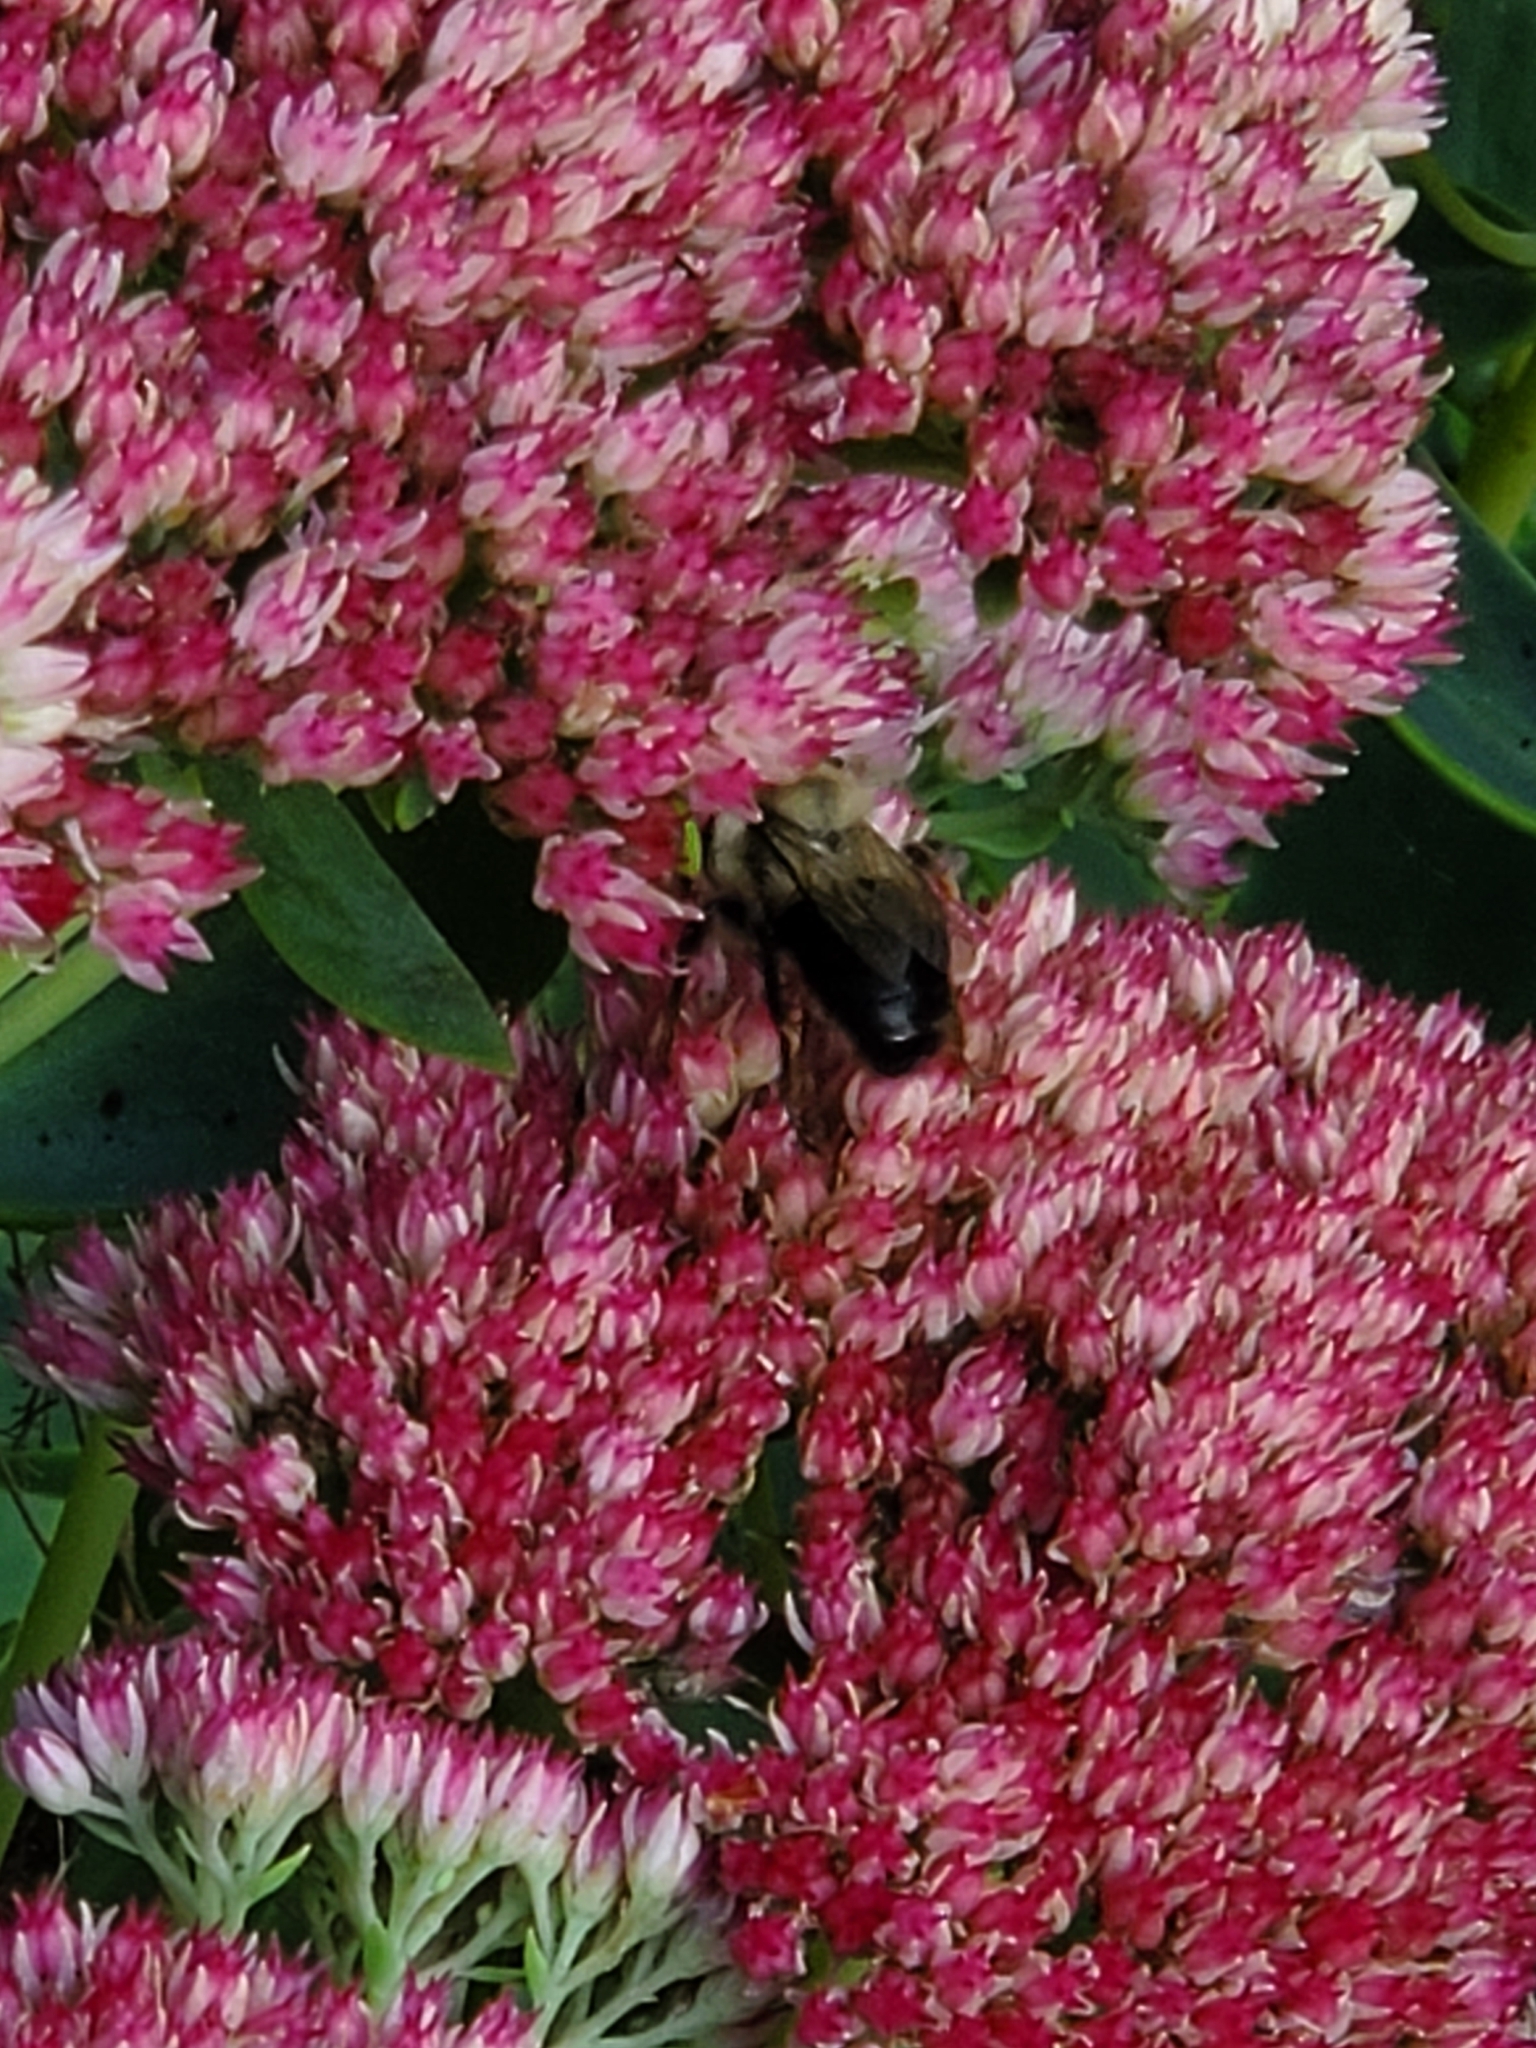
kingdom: Animalia
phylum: Arthropoda
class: Insecta
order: Hymenoptera
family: Apidae
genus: Bombus
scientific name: Bombus impatiens
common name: Common eastern bumble bee
